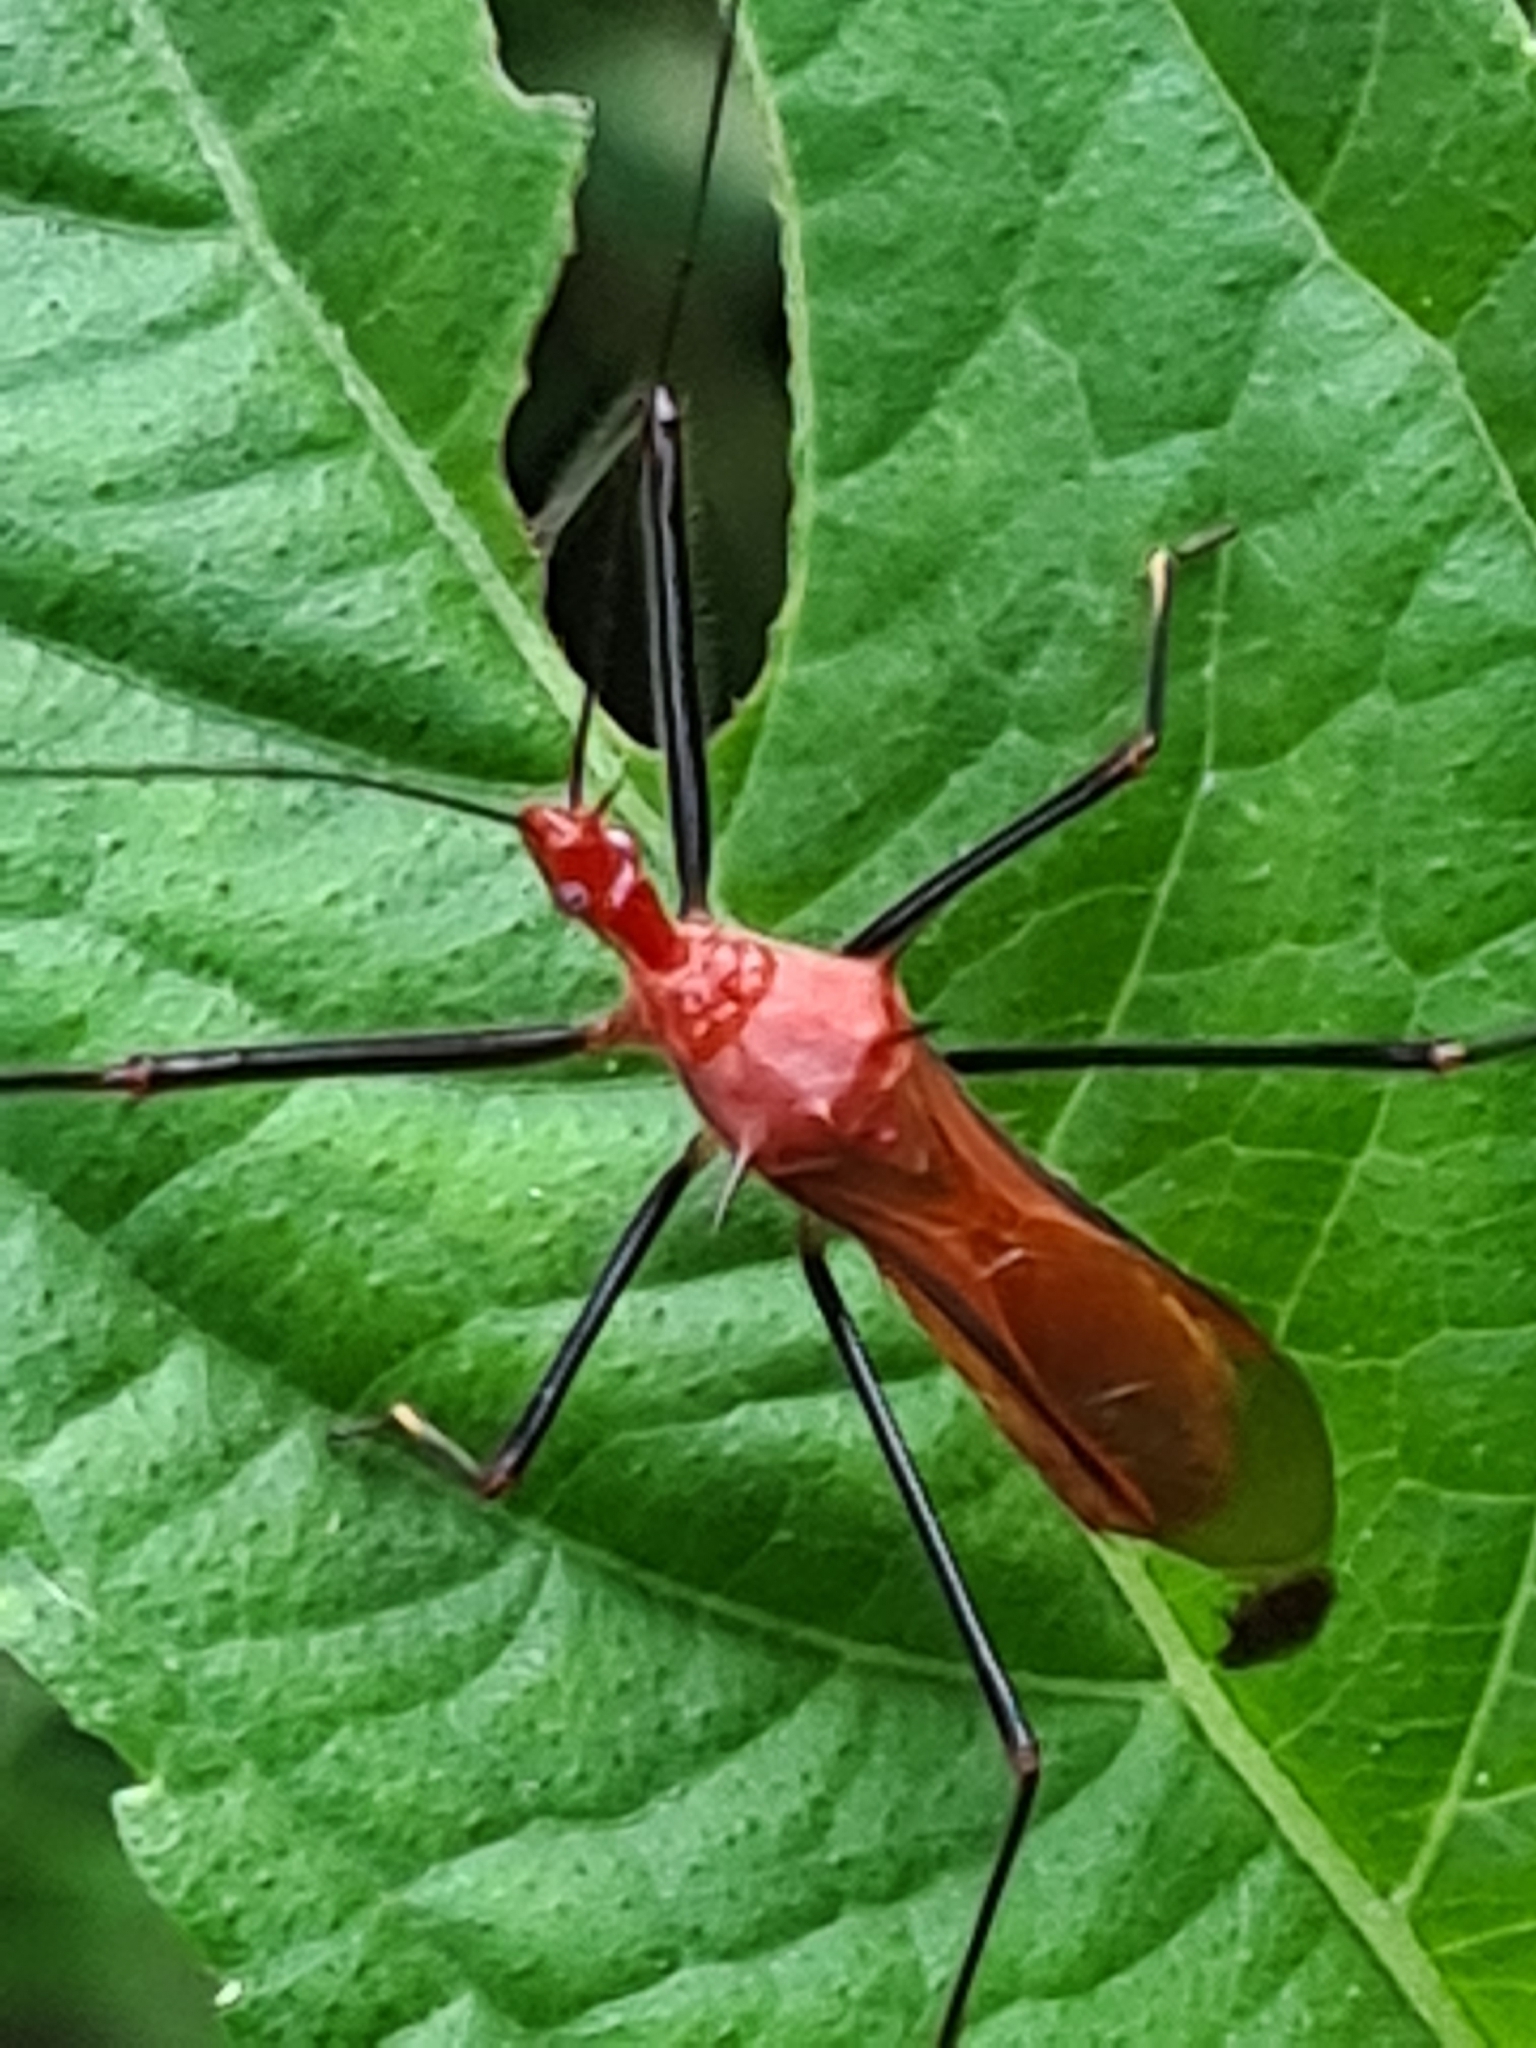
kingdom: Animalia
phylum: Arthropoda
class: Insecta
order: Hemiptera
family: Reduviidae
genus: Ricolla
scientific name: Ricolla quadrispinosa
